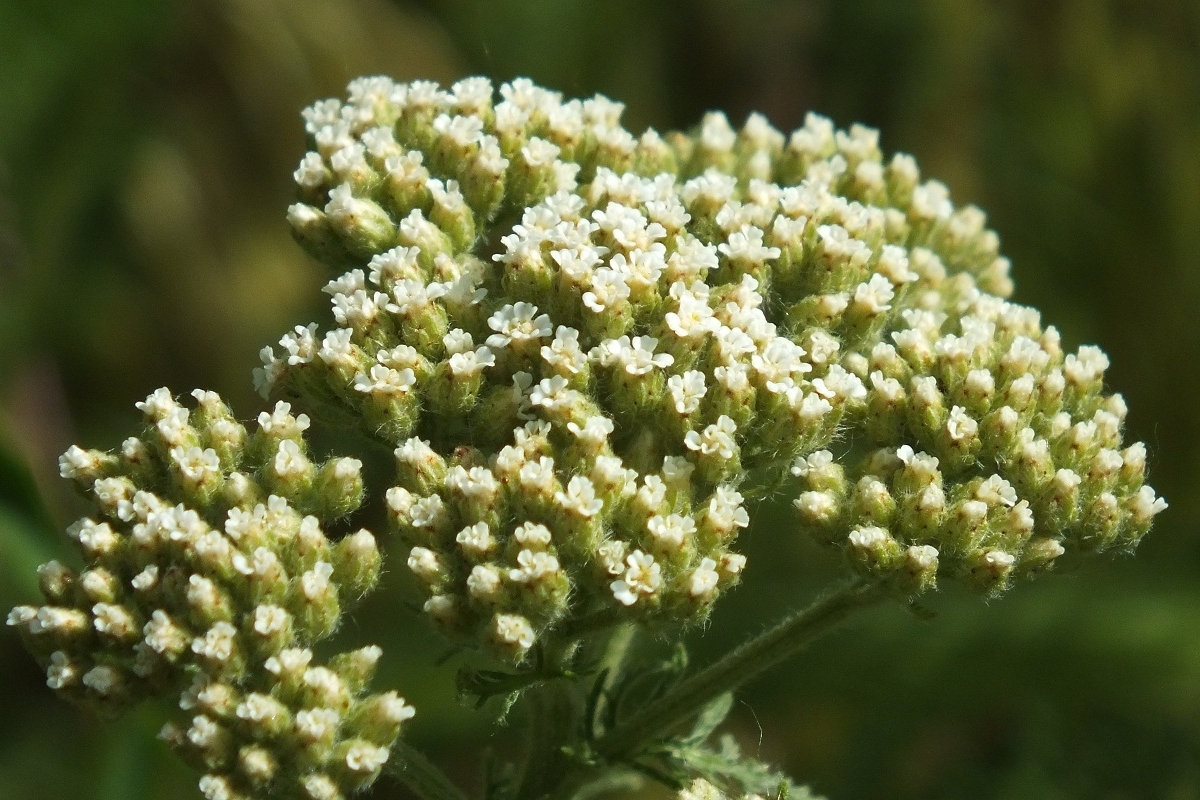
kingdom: Plantae
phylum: Tracheophyta
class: Magnoliopsida
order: Asterales
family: Asteraceae
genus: Achillea
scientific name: Achillea nobilis
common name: Noble yarrow
